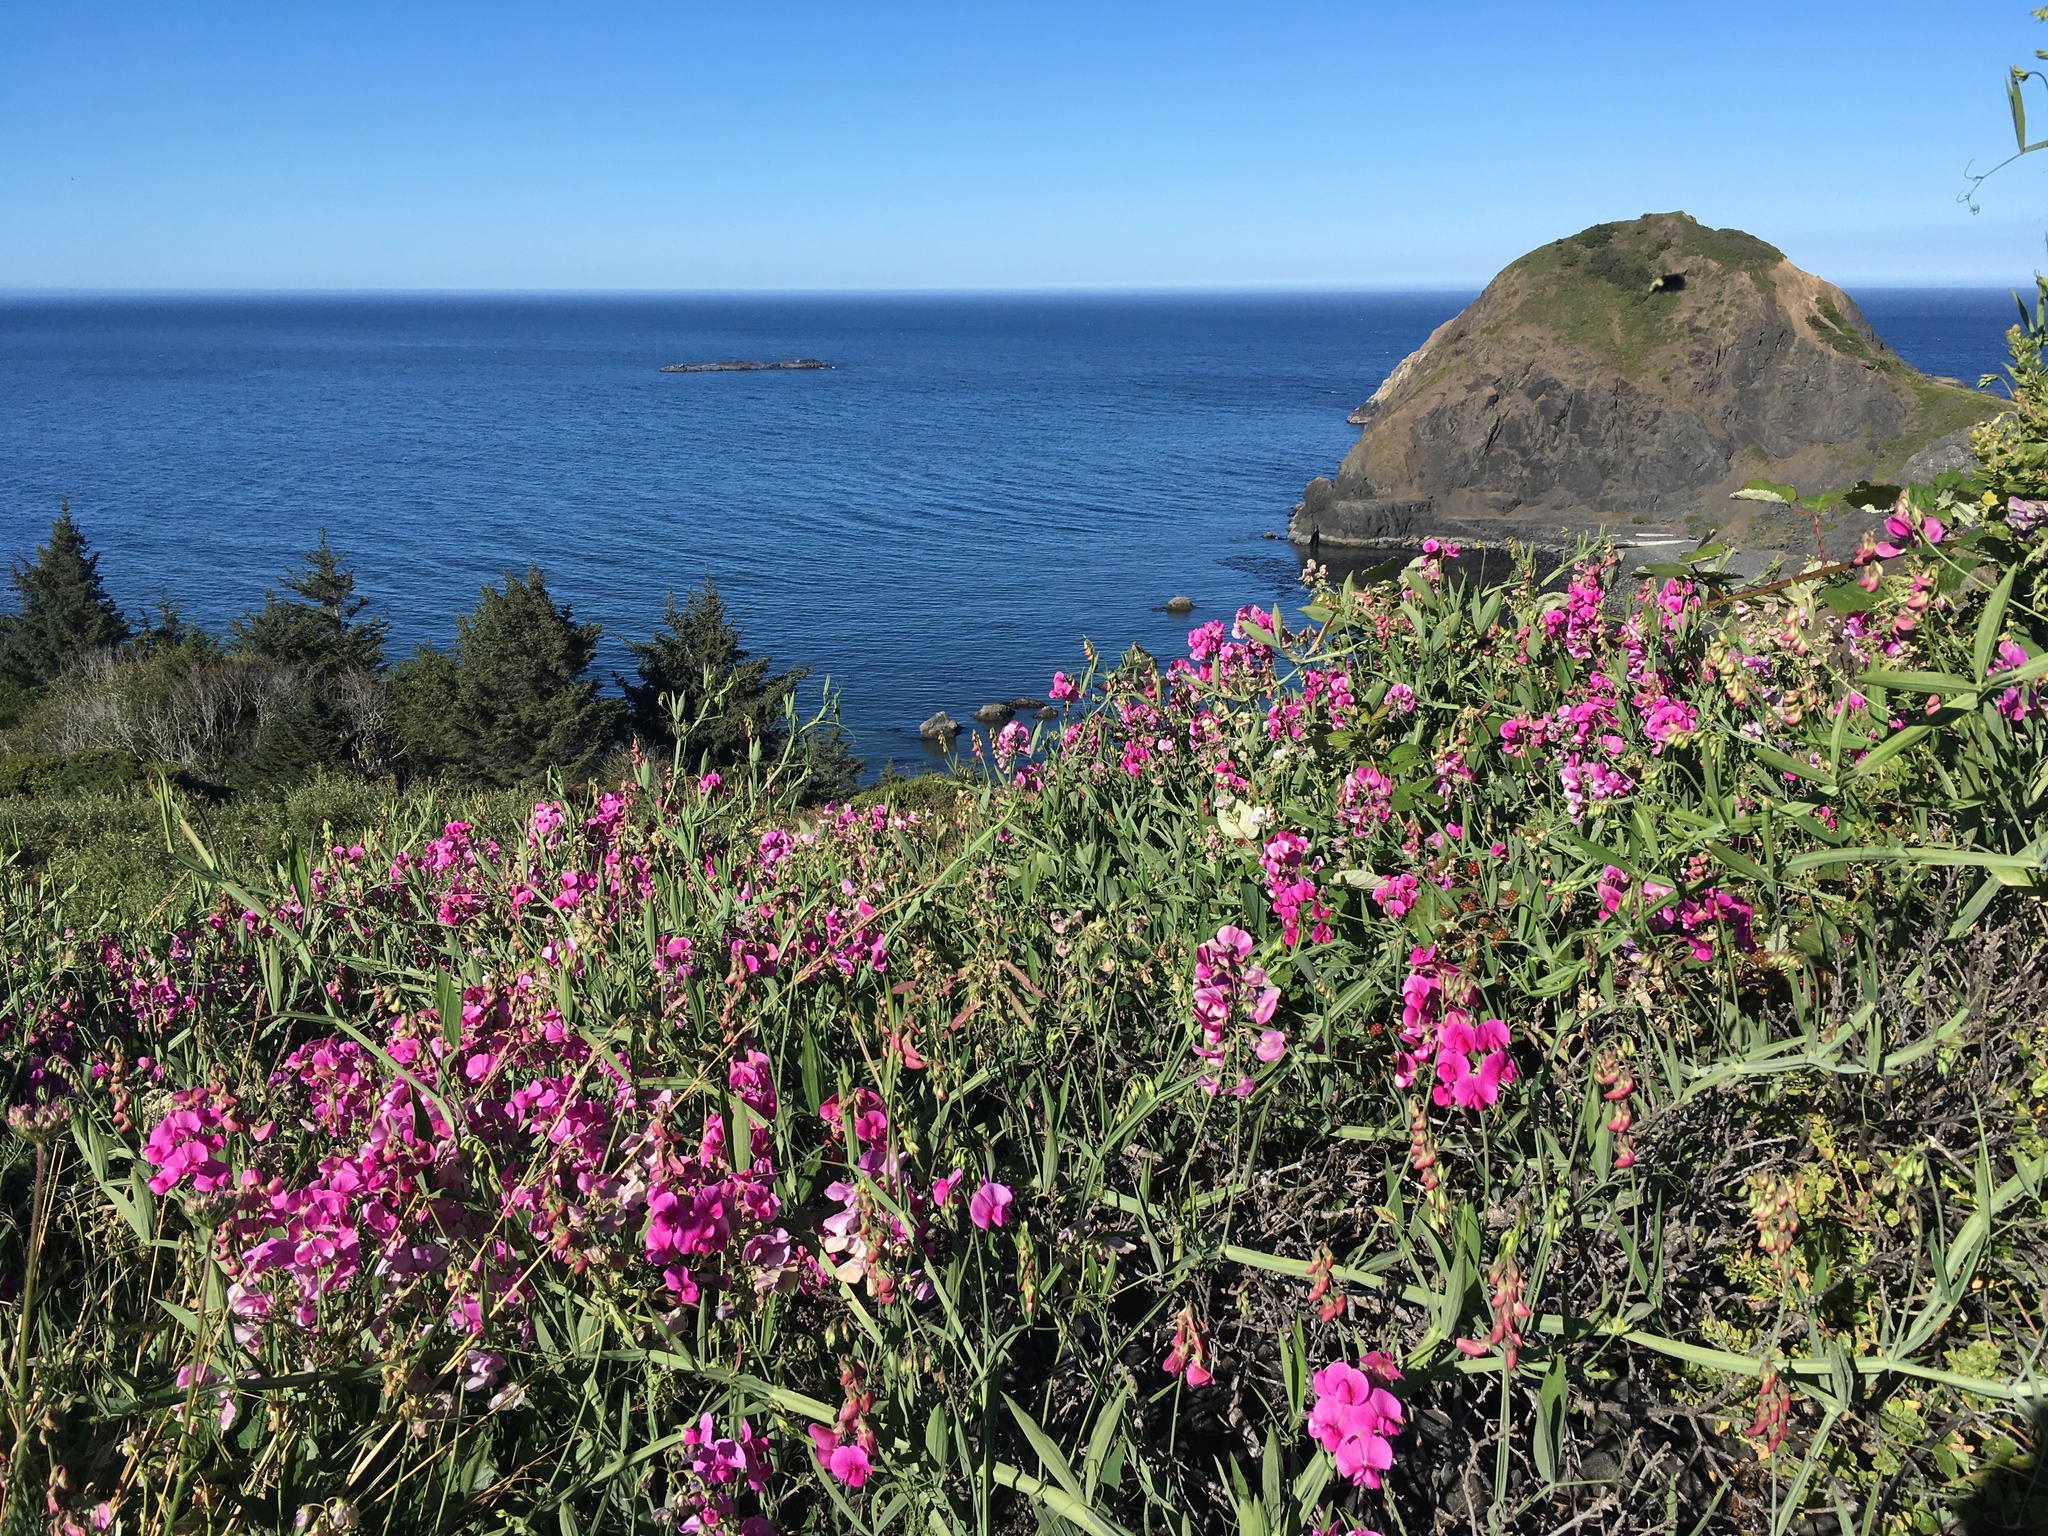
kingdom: Plantae
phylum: Tracheophyta
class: Magnoliopsida
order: Fabales
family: Fabaceae
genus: Lathyrus
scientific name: Lathyrus latifolius
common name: Perennial pea
